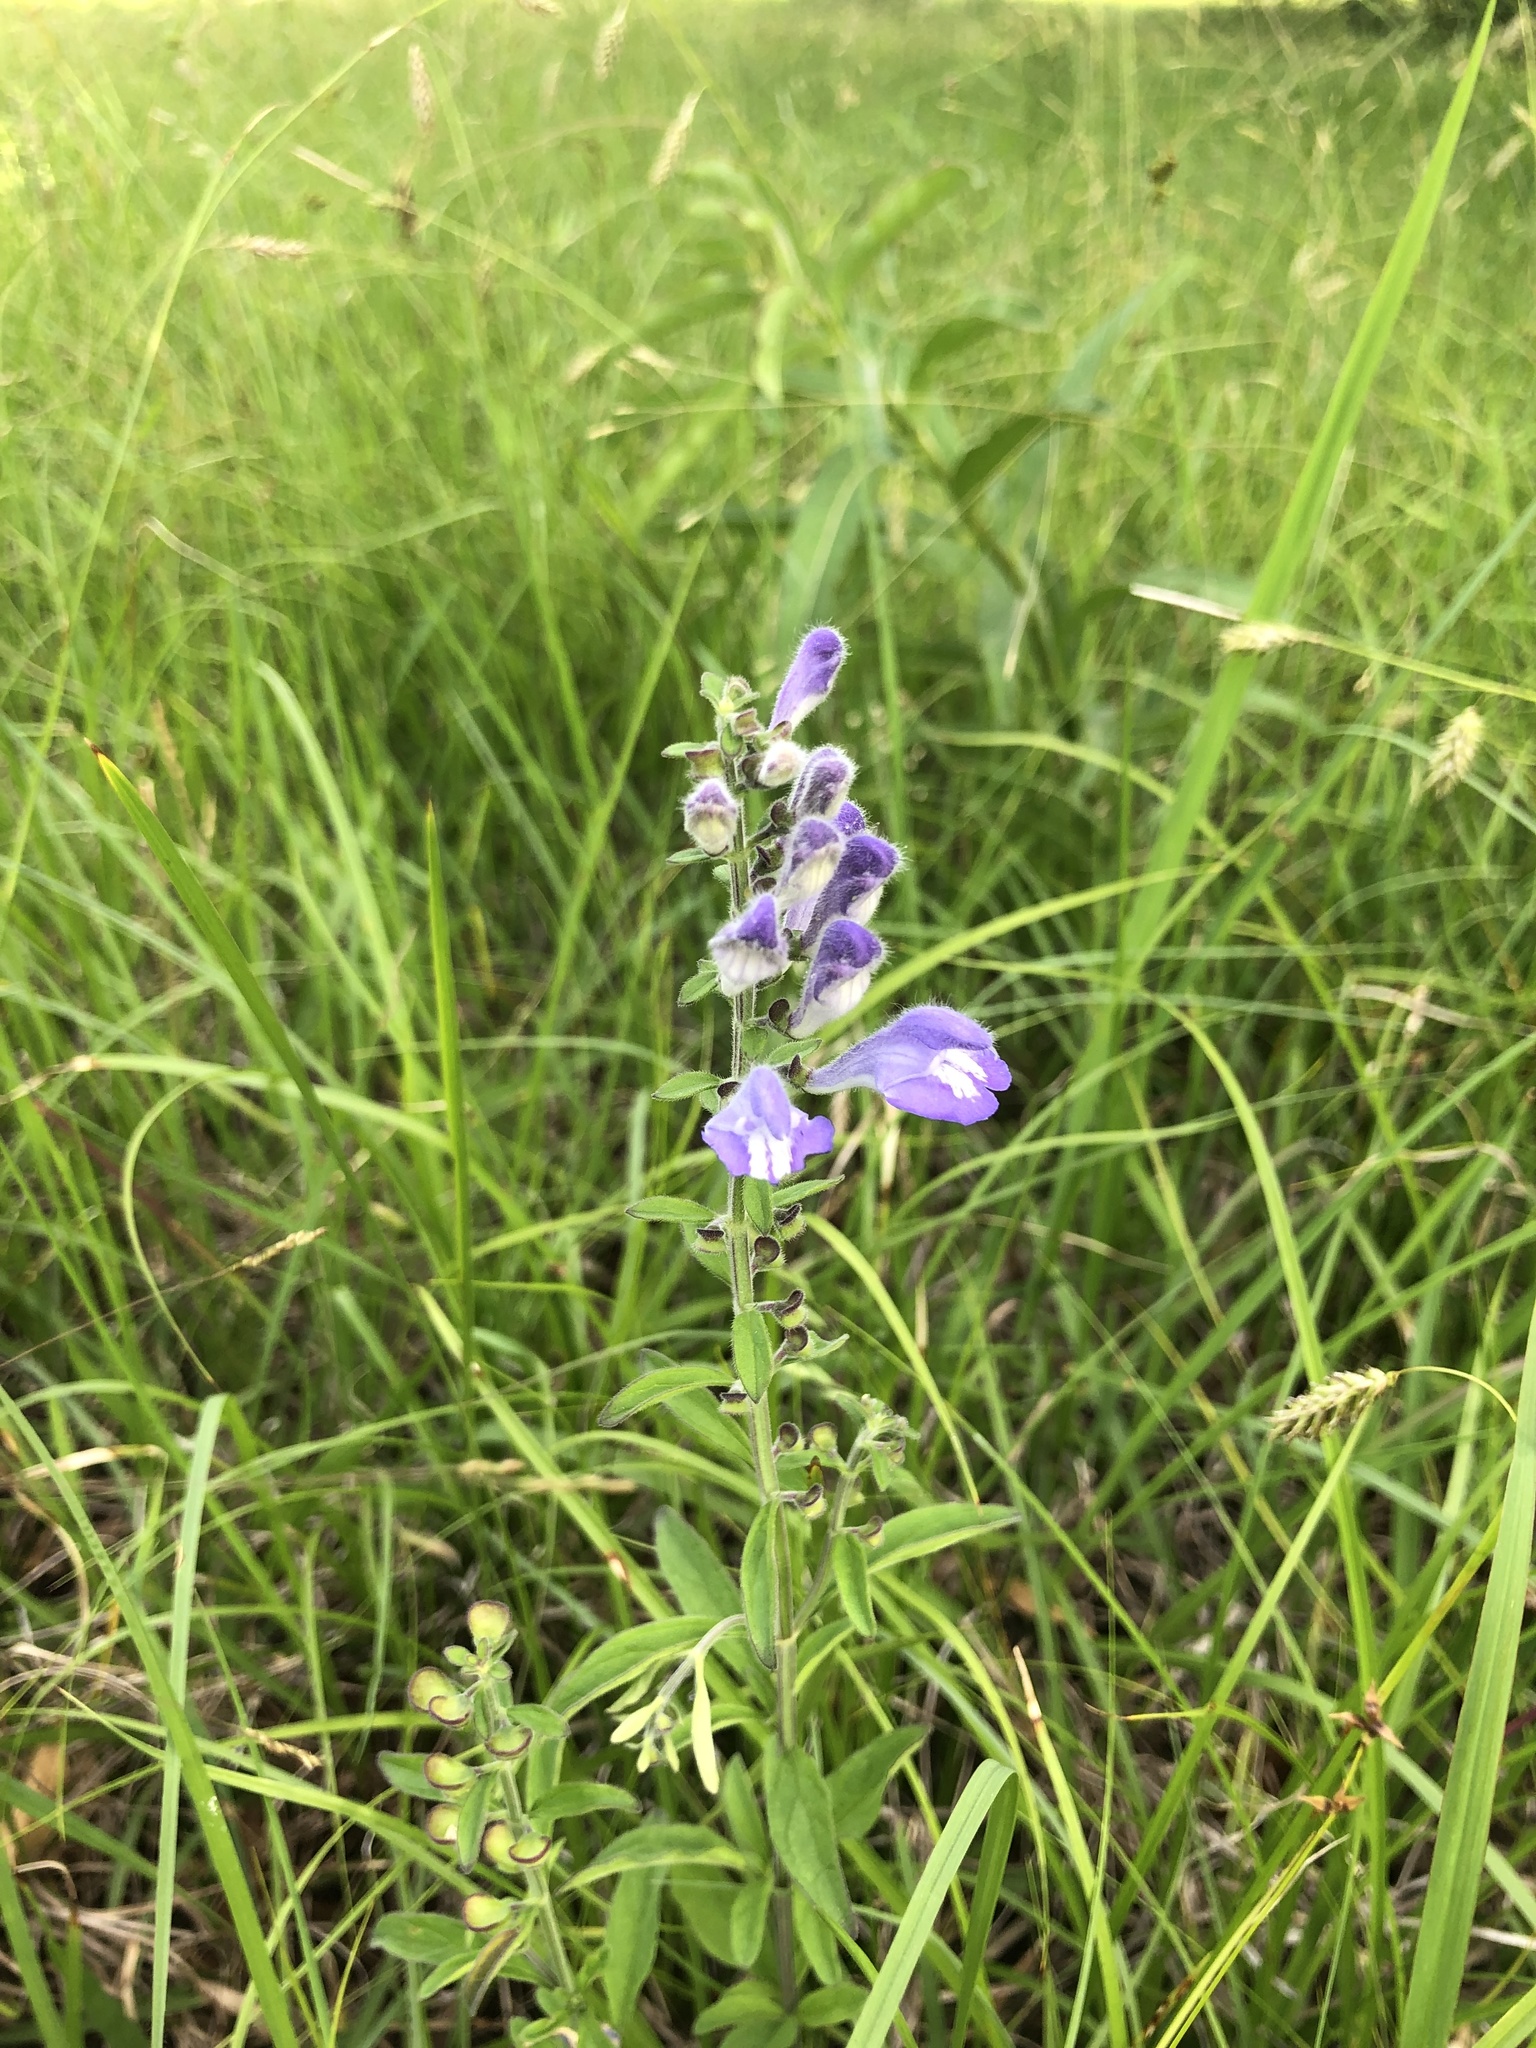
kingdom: Plantae
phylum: Tracheophyta
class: Magnoliopsida
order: Lamiales
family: Lamiaceae
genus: Scutellaria
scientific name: Scutellaria integrifolia
